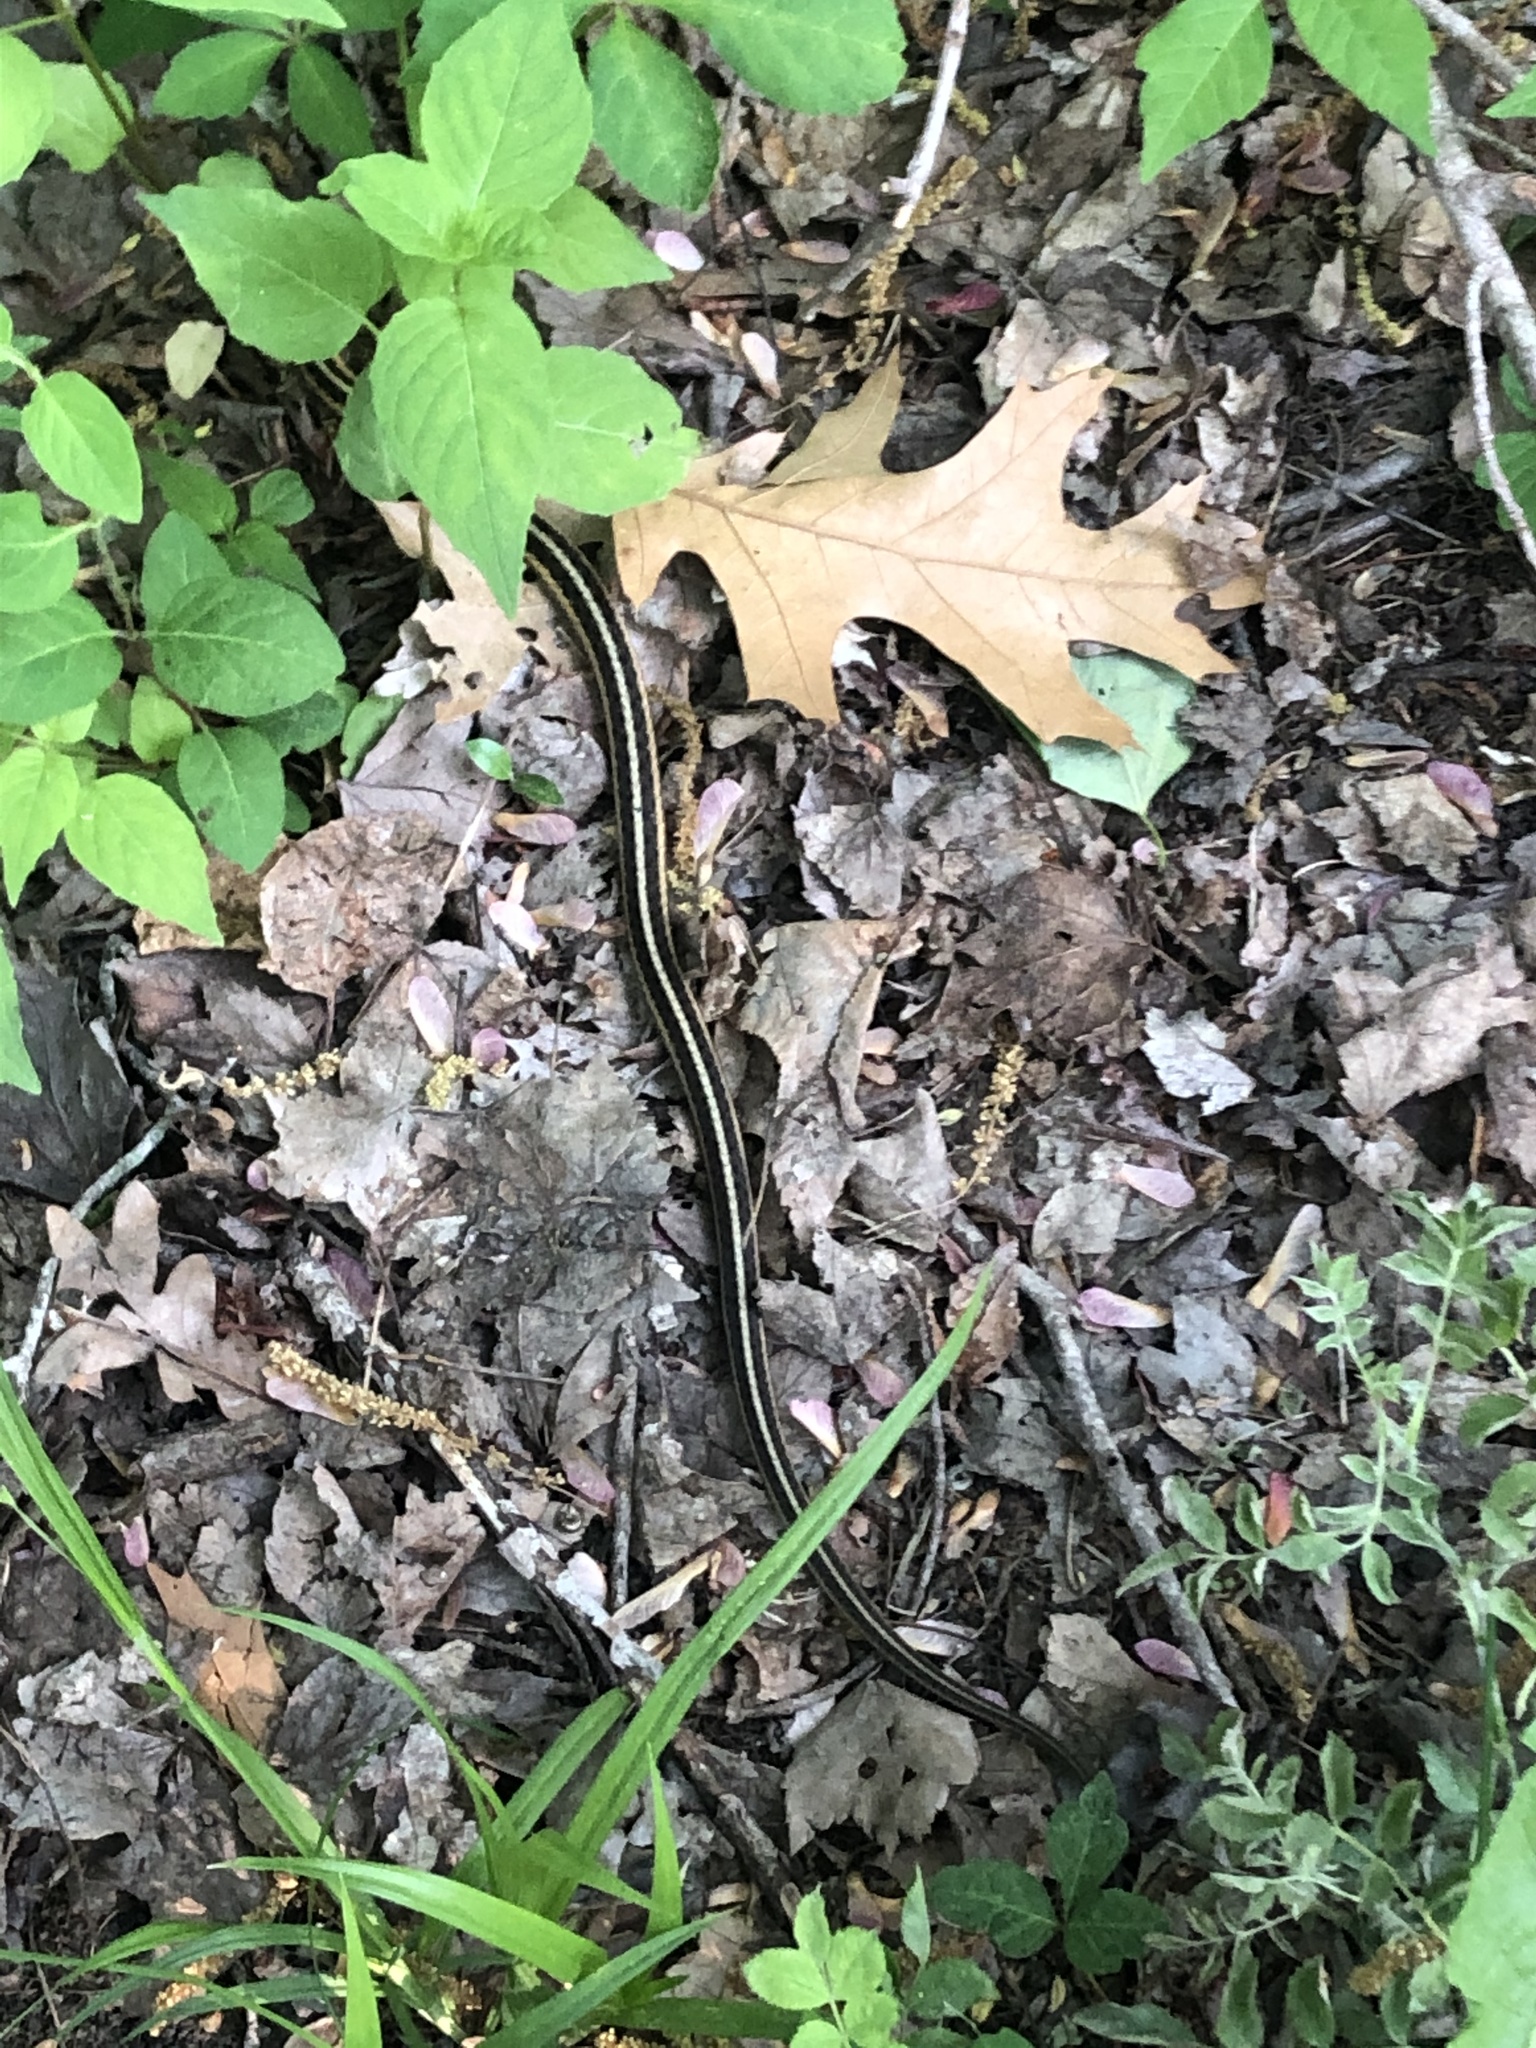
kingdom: Animalia
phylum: Chordata
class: Squamata
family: Colubridae
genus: Thamnophis
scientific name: Thamnophis sirtalis
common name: Common garter snake
